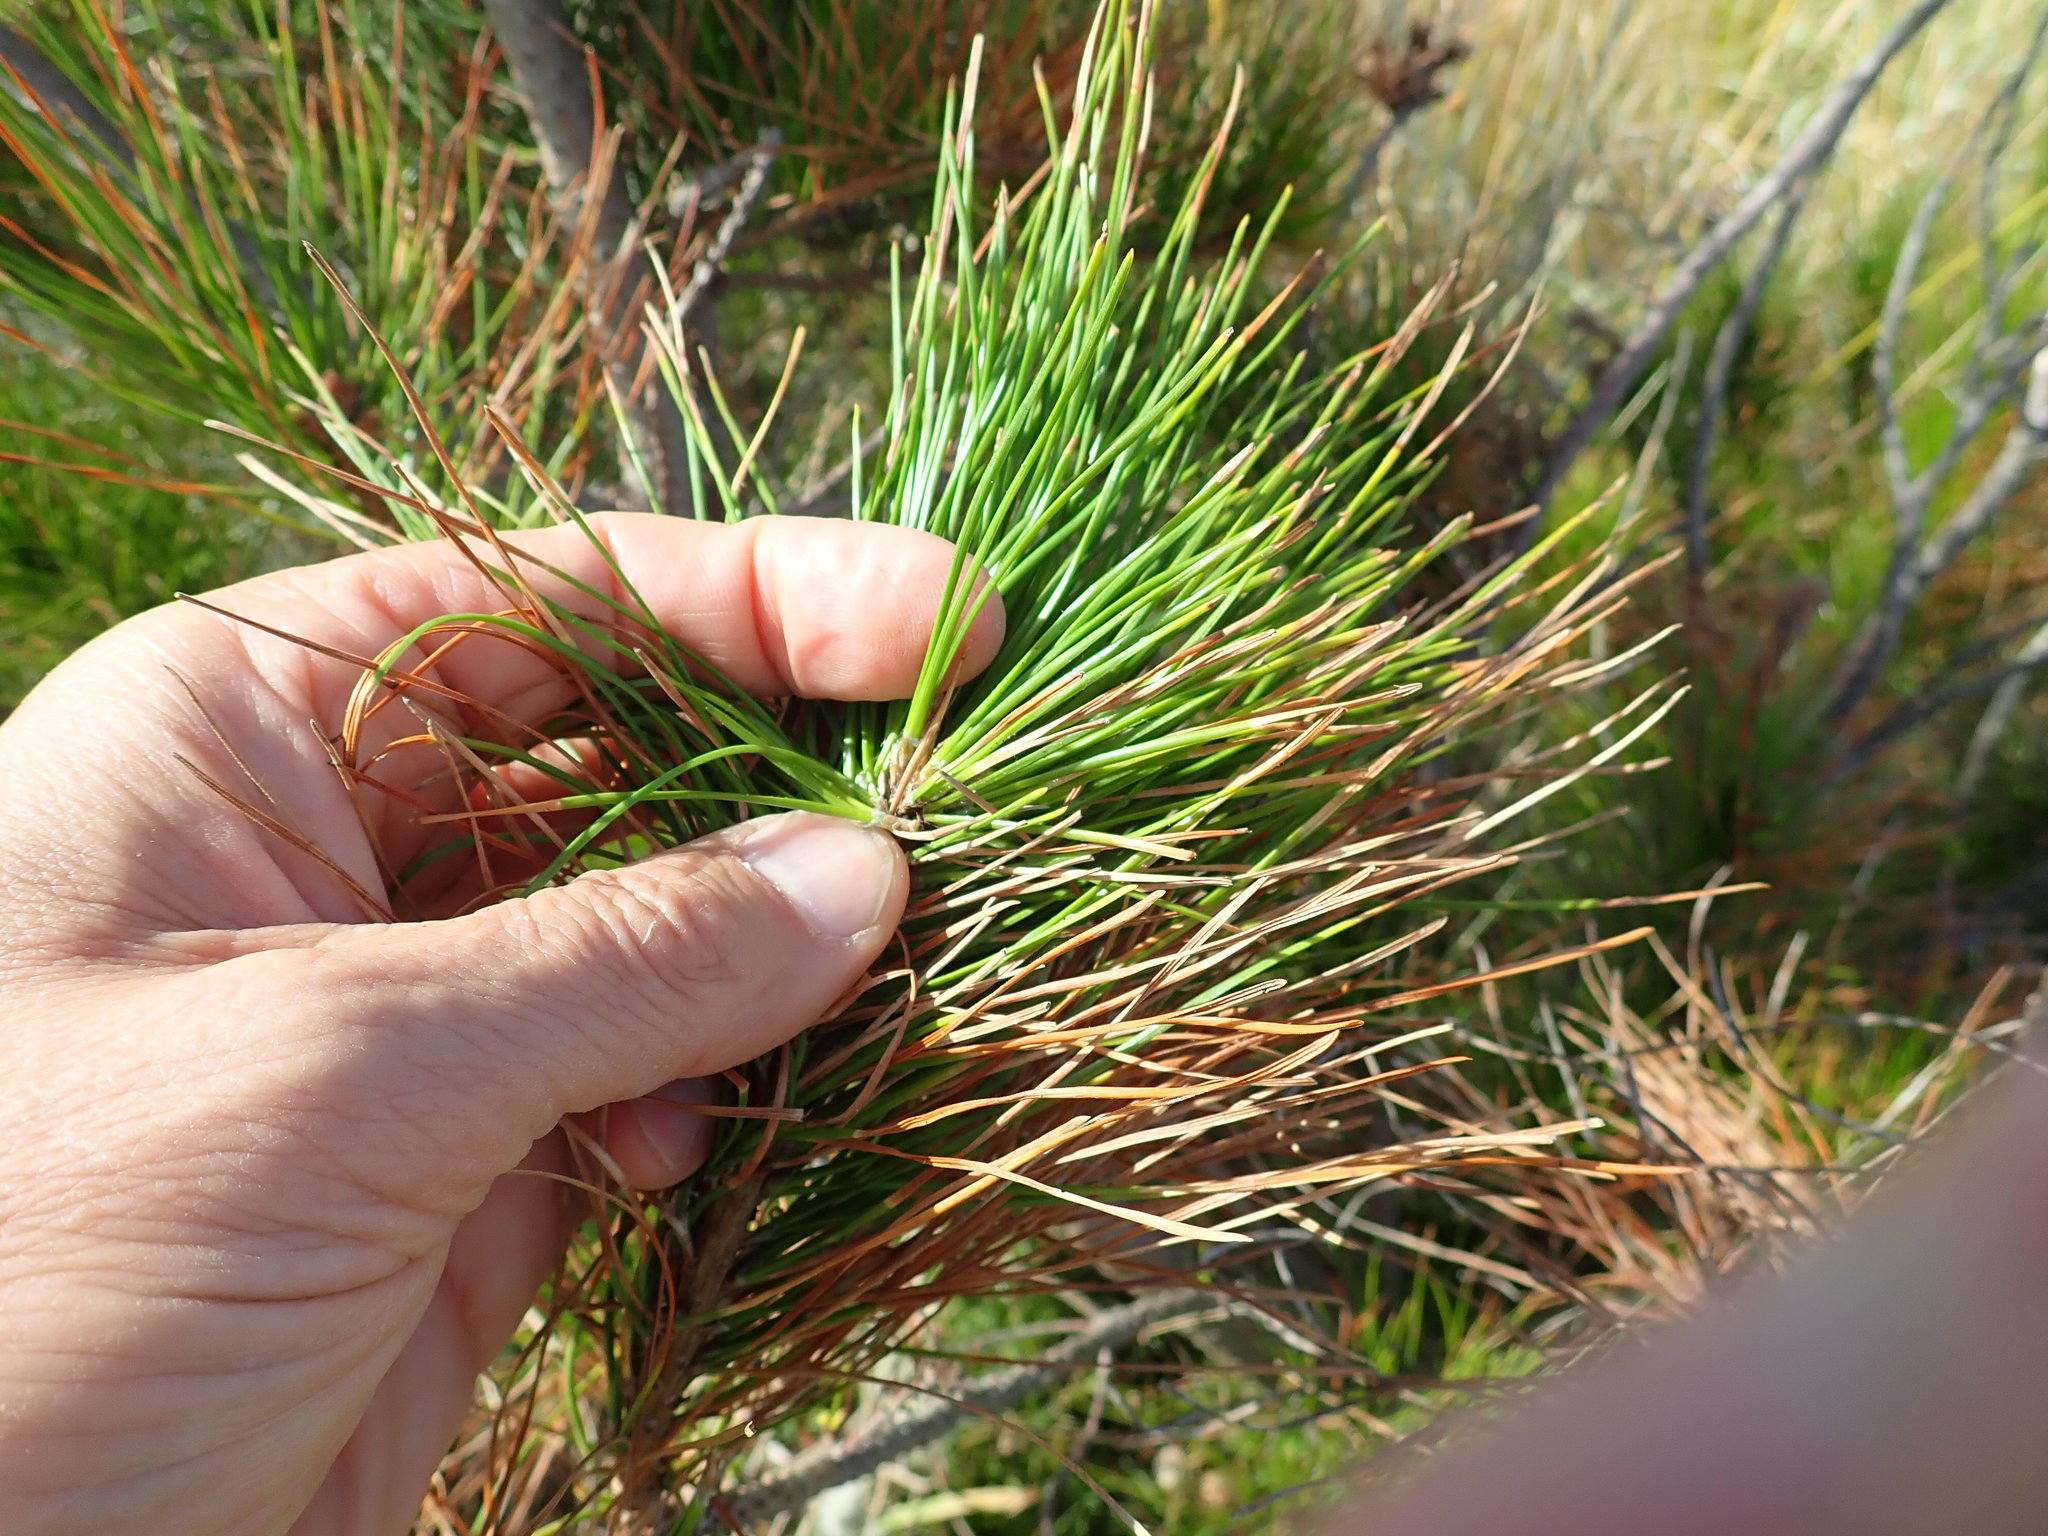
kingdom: Plantae
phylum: Tracheophyta
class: Pinopsida
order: Pinales
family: Pinaceae
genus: Pinus
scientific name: Pinus radiata
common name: Monterey pine
